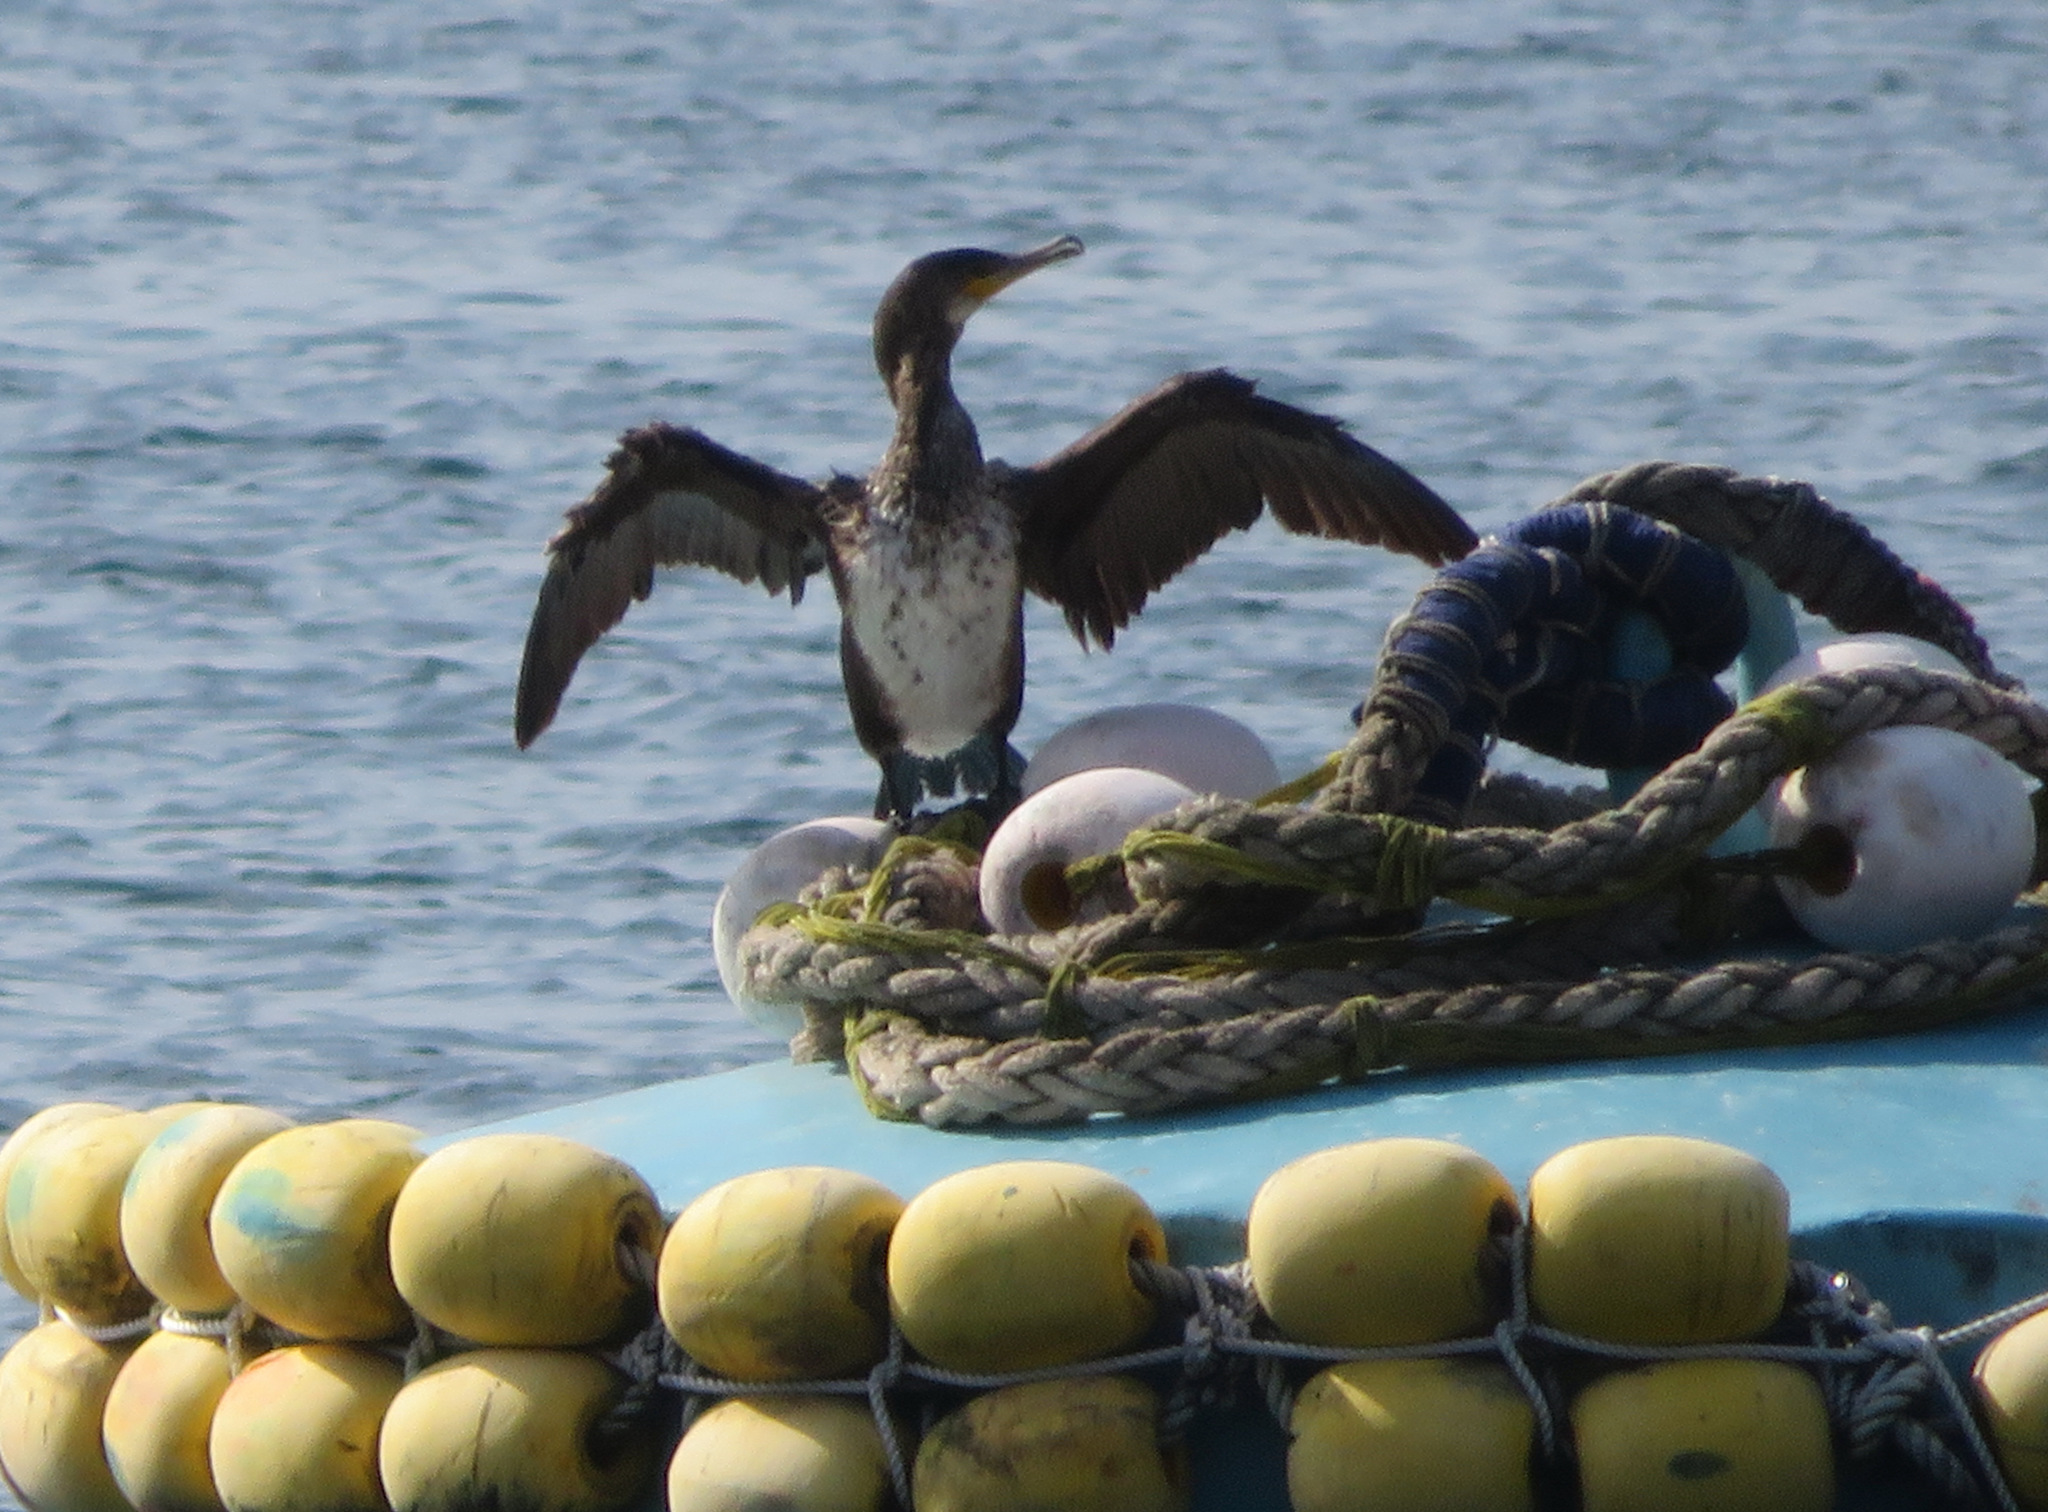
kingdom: Animalia
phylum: Chordata
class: Aves
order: Suliformes
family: Phalacrocoracidae
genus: Phalacrocorax
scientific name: Phalacrocorax carbo
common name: Great cormorant
